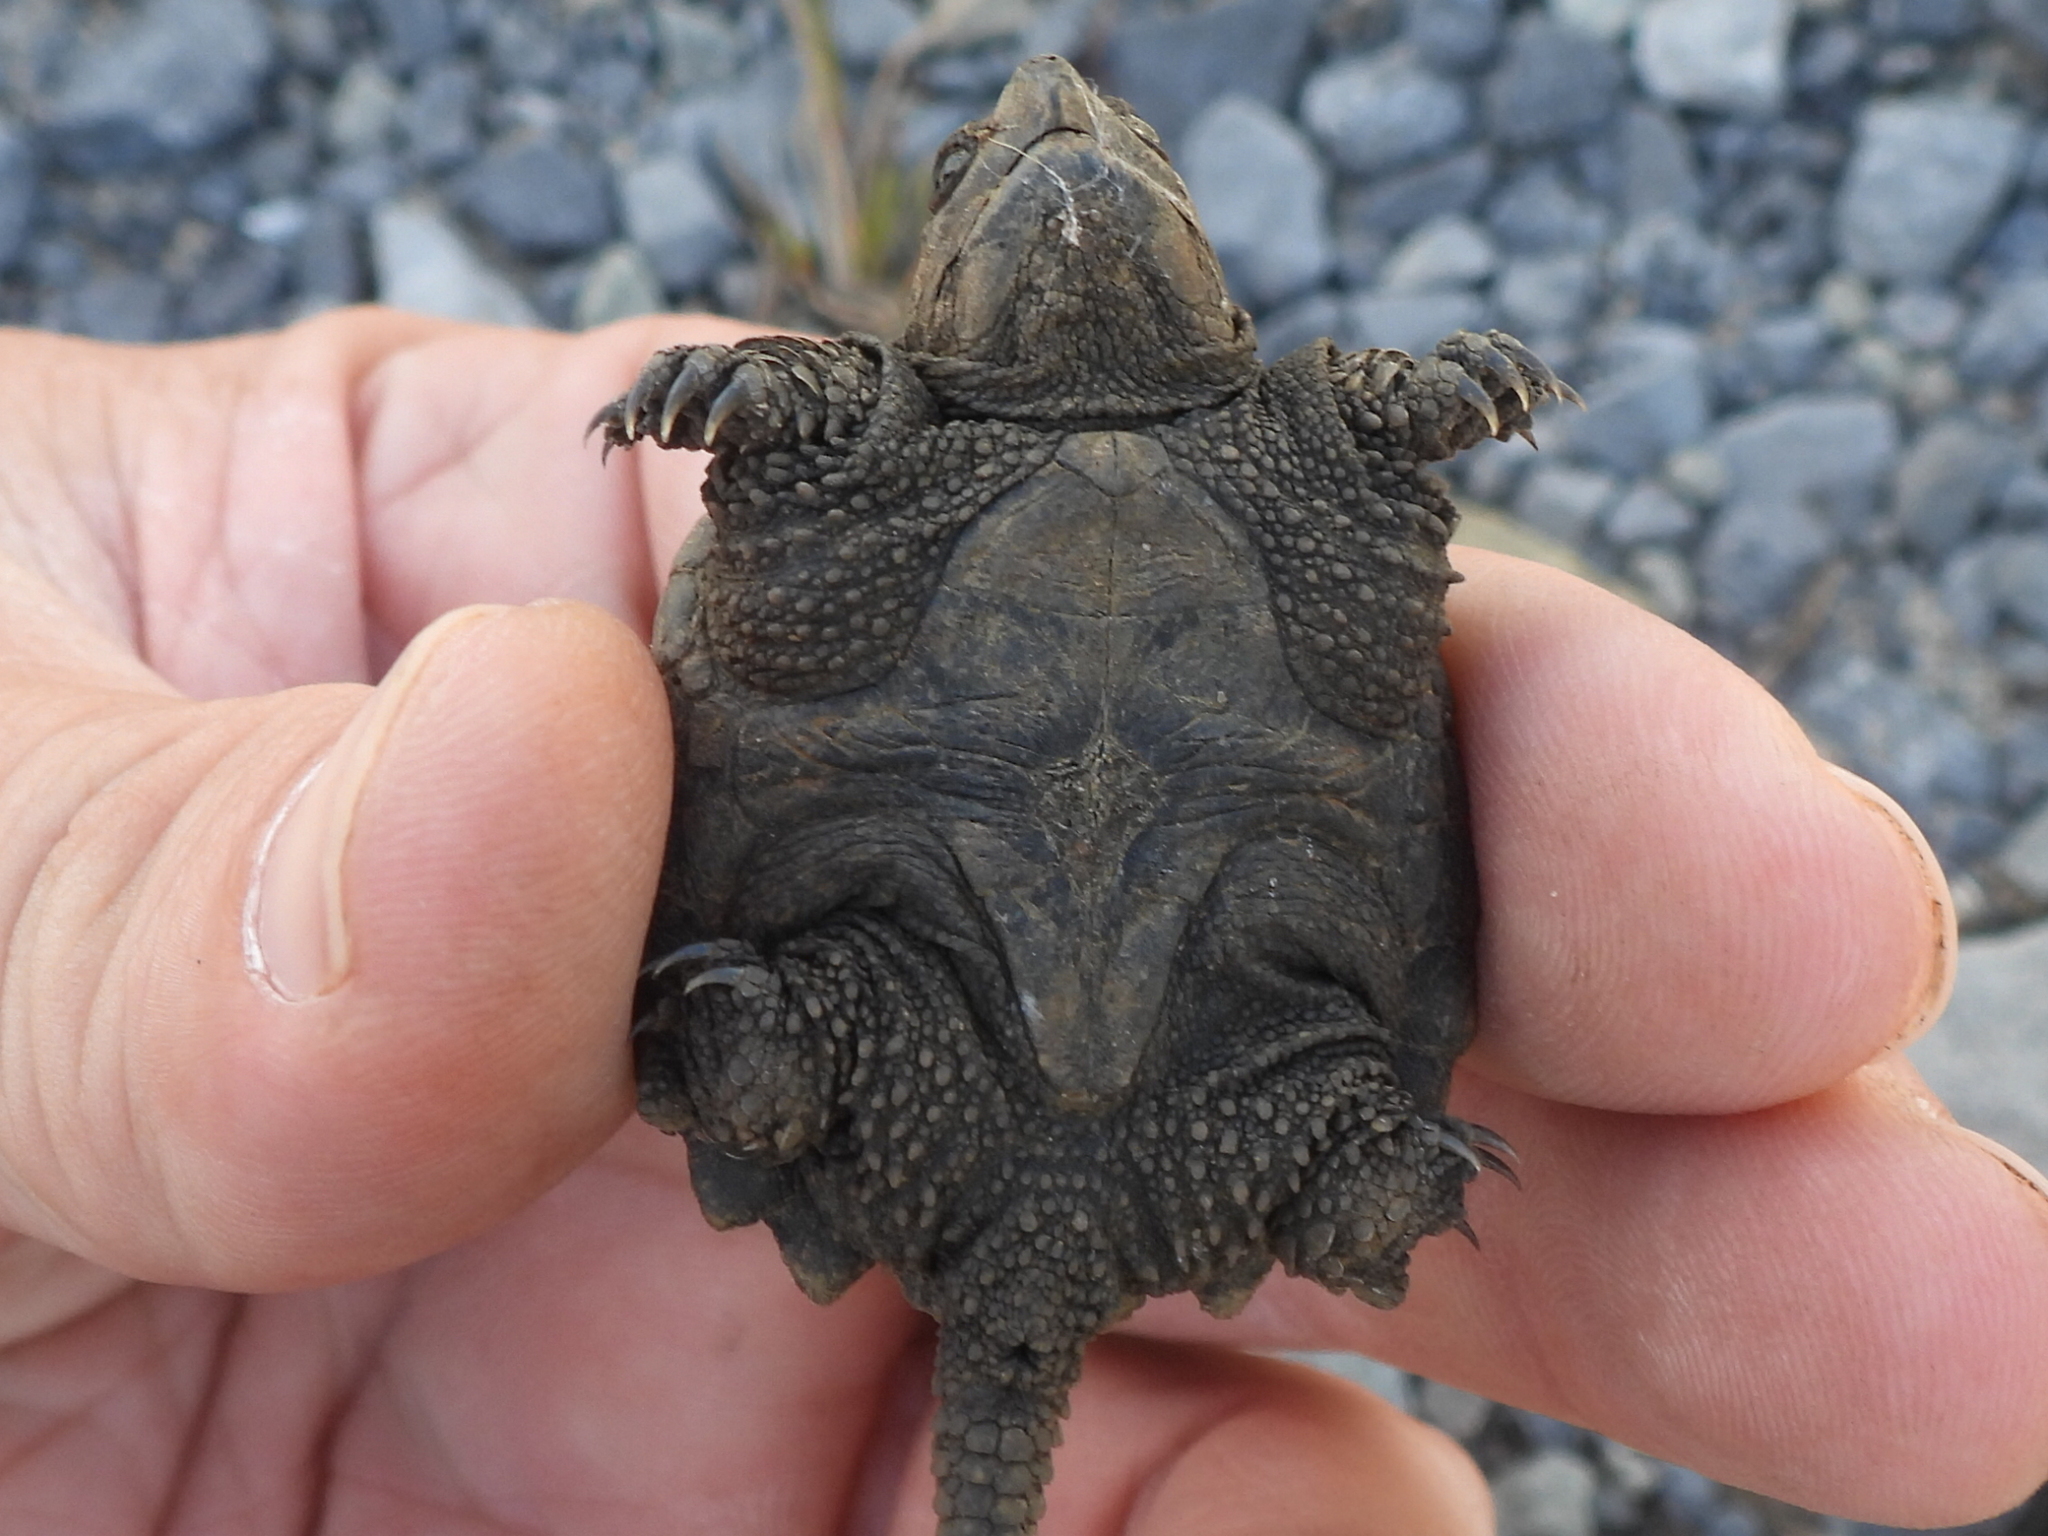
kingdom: Animalia
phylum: Chordata
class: Testudines
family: Chelydridae
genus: Chelydra
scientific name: Chelydra serpentina
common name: Common snapping turtle
